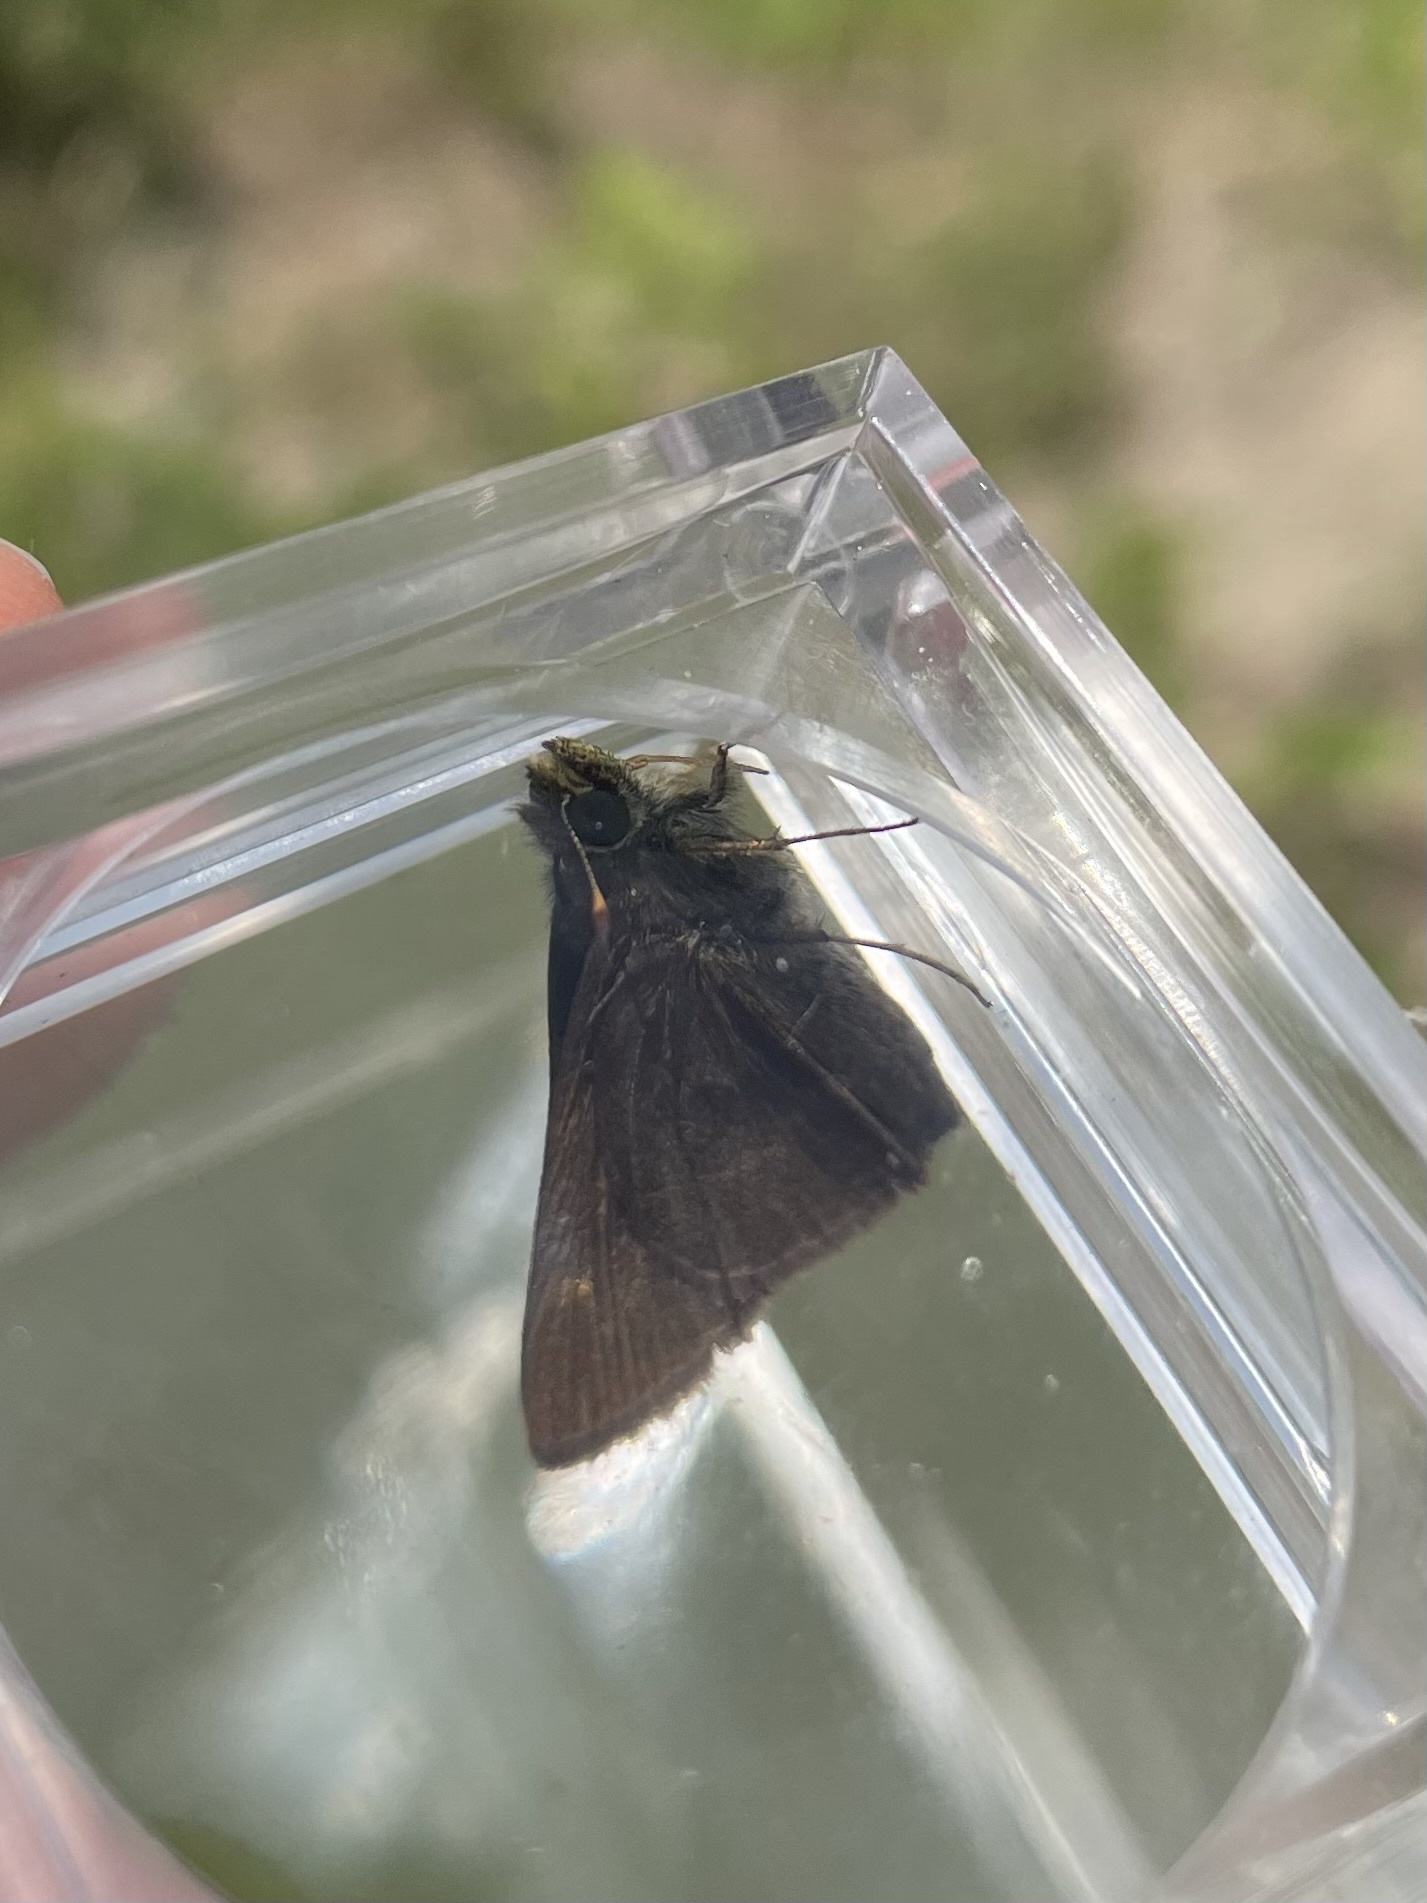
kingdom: Animalia
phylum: Arthropoda
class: Insecta
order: Lepidoptera
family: Hesperiidae
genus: Euphyes
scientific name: Euphyes vestris
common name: Dun skipper
